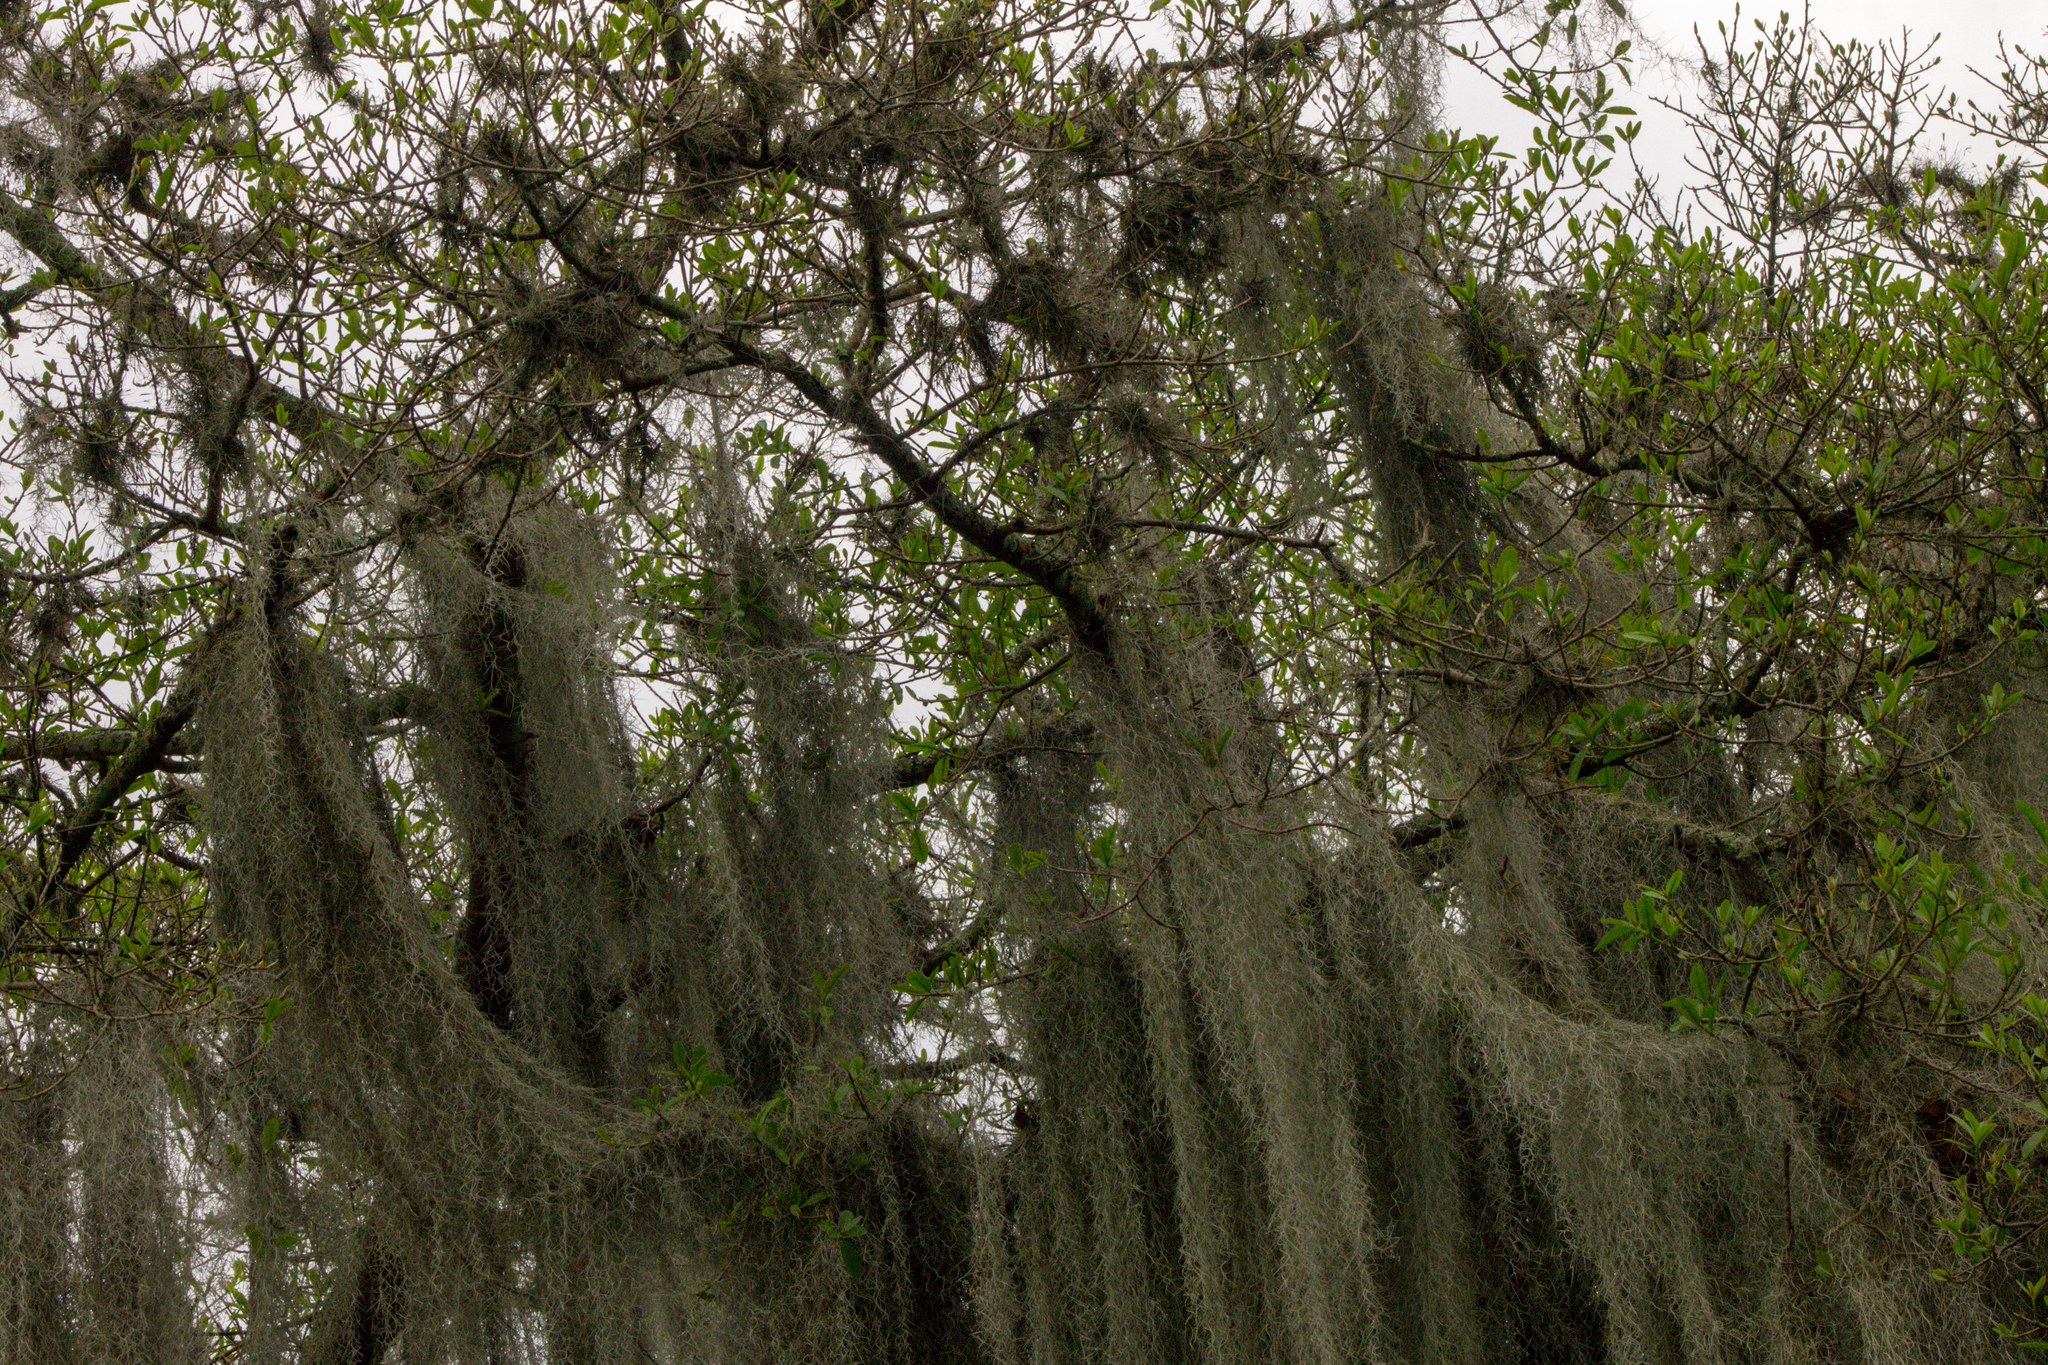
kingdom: Plantae
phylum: Tracheophyta
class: Liliopsida
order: Poales
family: Bromeliaceae
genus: Tillandsia
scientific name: Tillandsia usneoides
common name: Spanish moss
